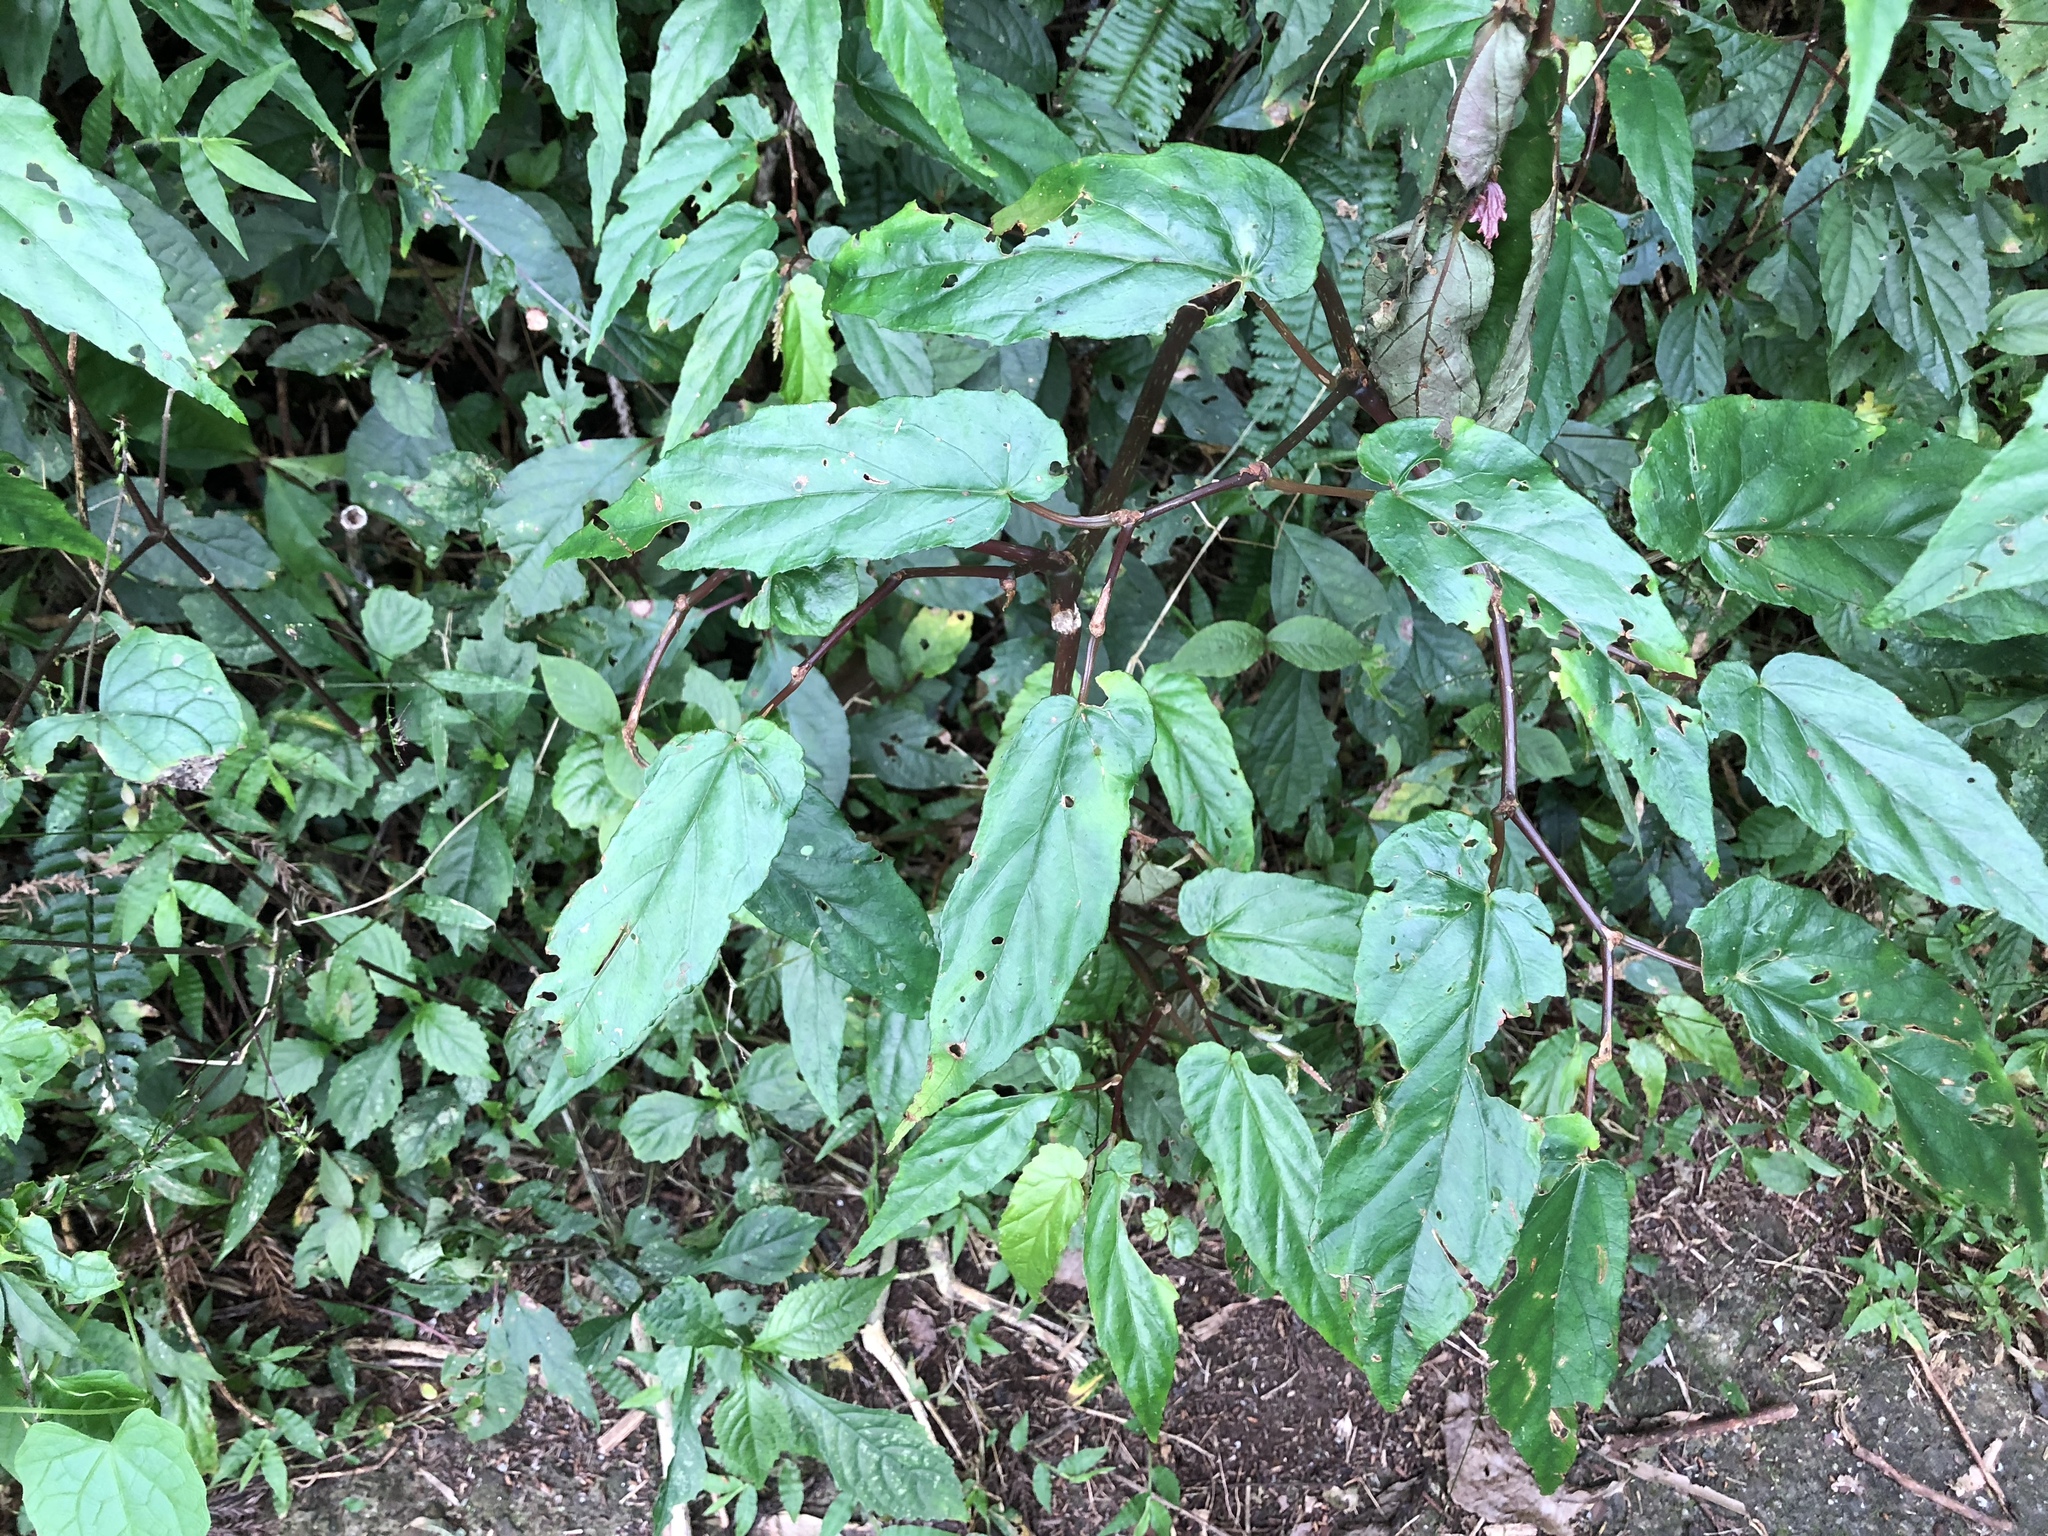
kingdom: Plantae
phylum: Tracheophyta
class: Magnoliopsida
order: Cucurbitales
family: Begoniaceae
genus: Begonia
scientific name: Begonia taiwaniana
